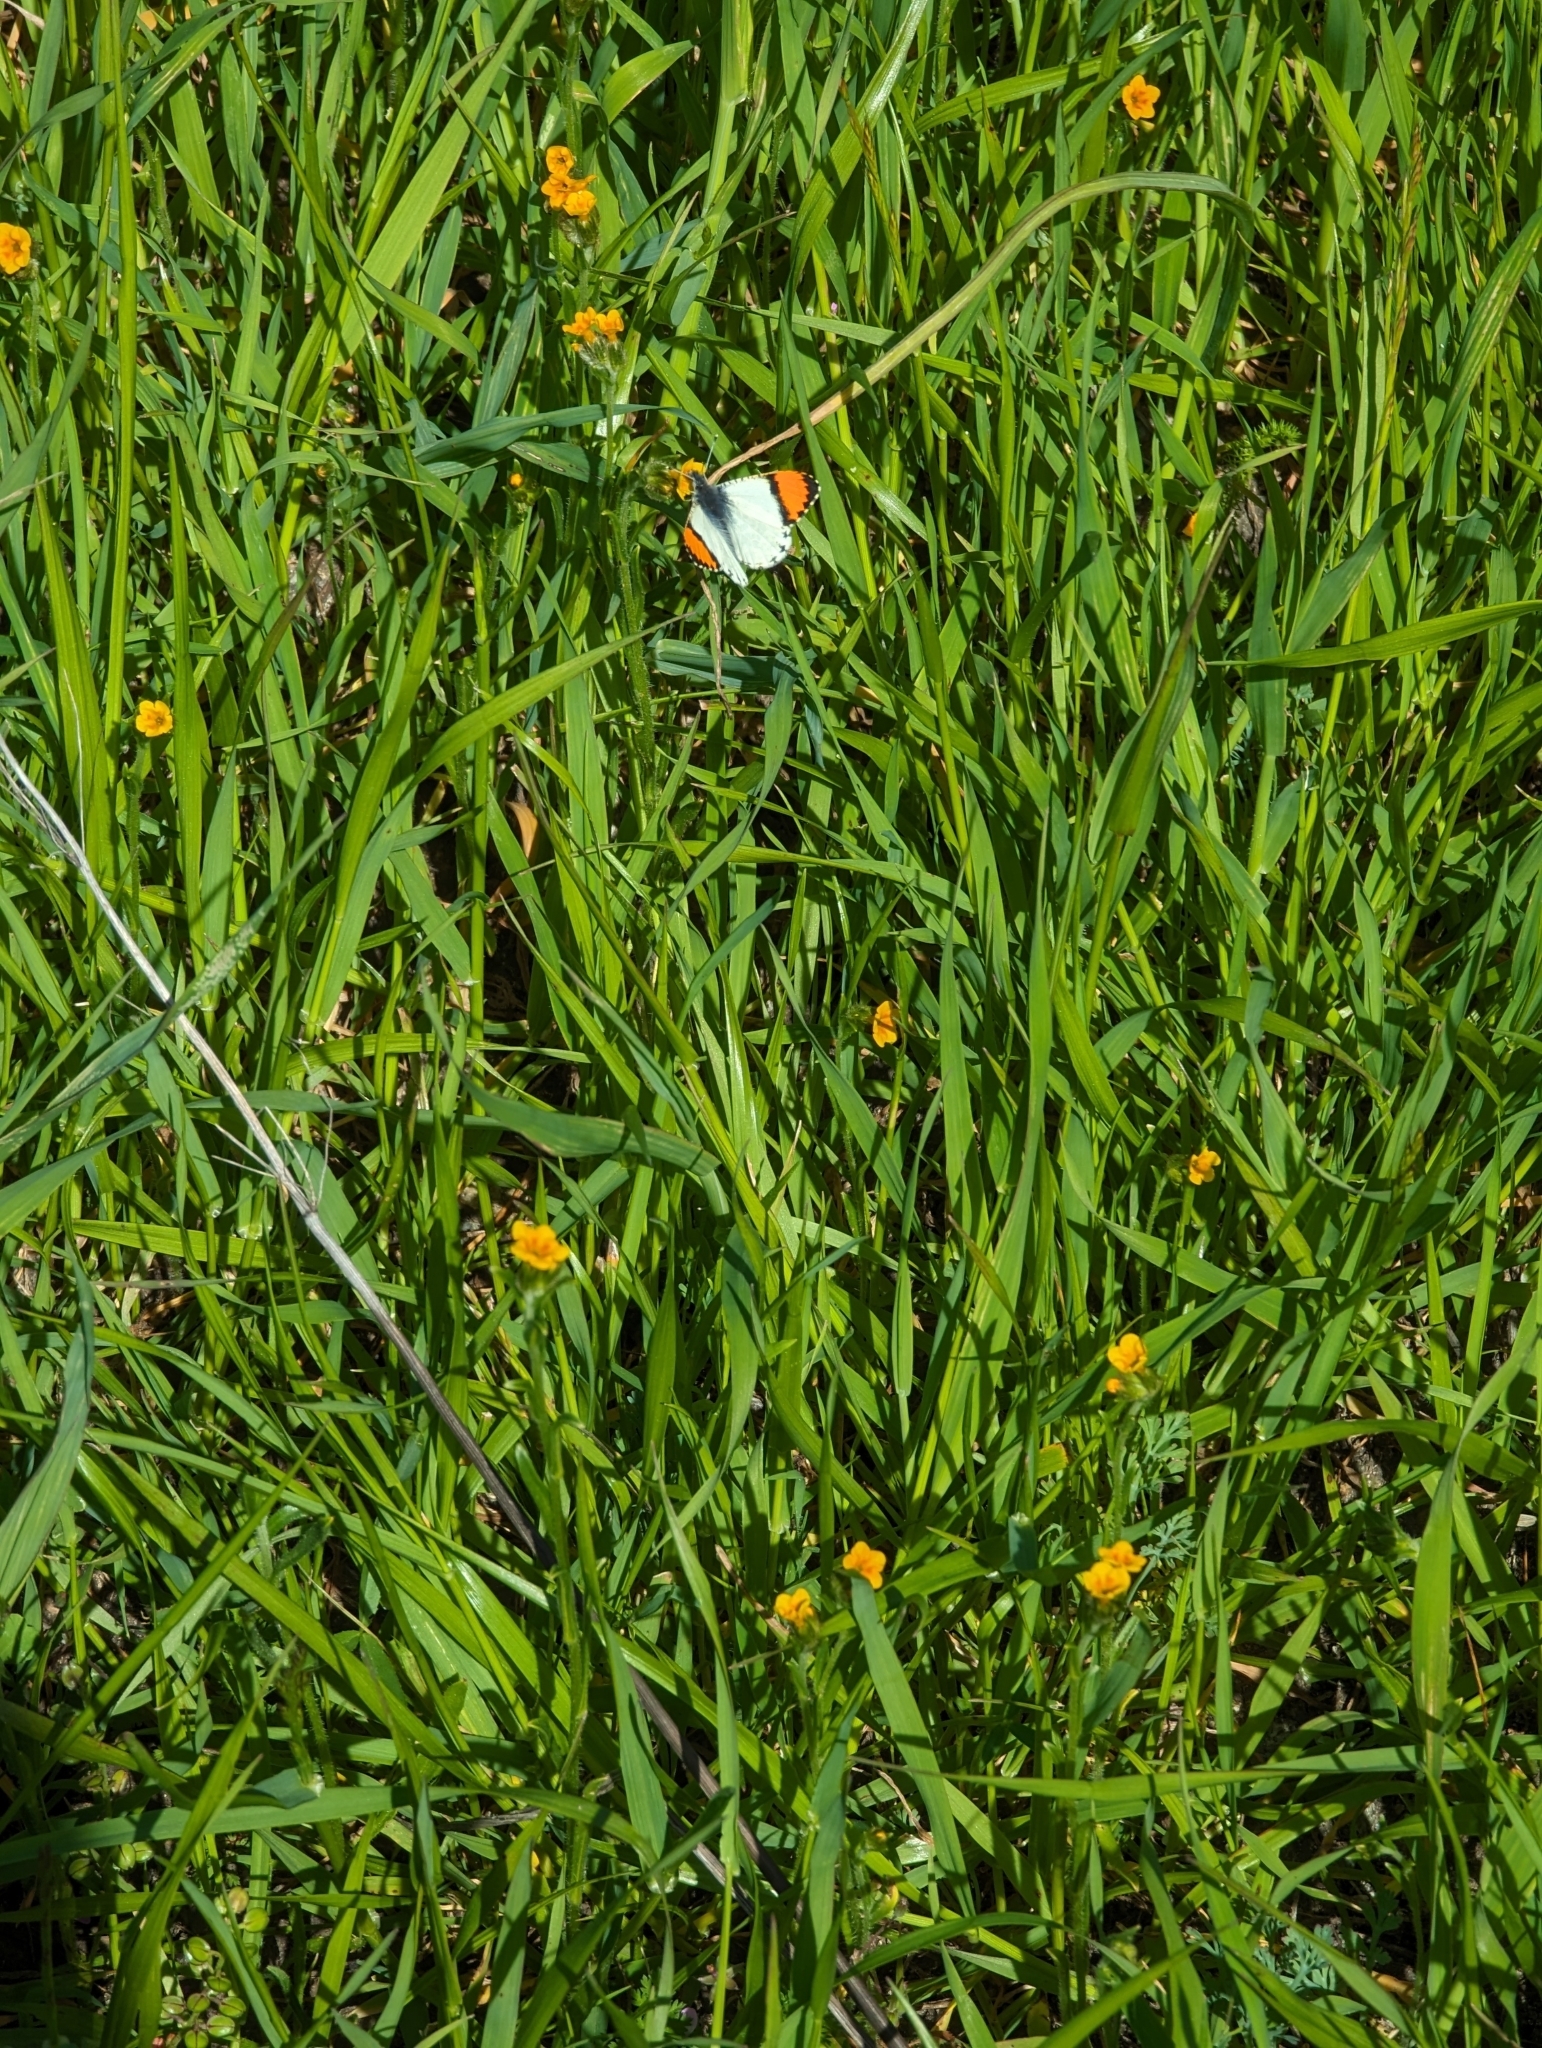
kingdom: Animalia
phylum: Arthropoda
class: Insecta
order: Lepidoptera
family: Pieridae
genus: Anthocharis
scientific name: Anthocharis sara
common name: Sara's orangetip
